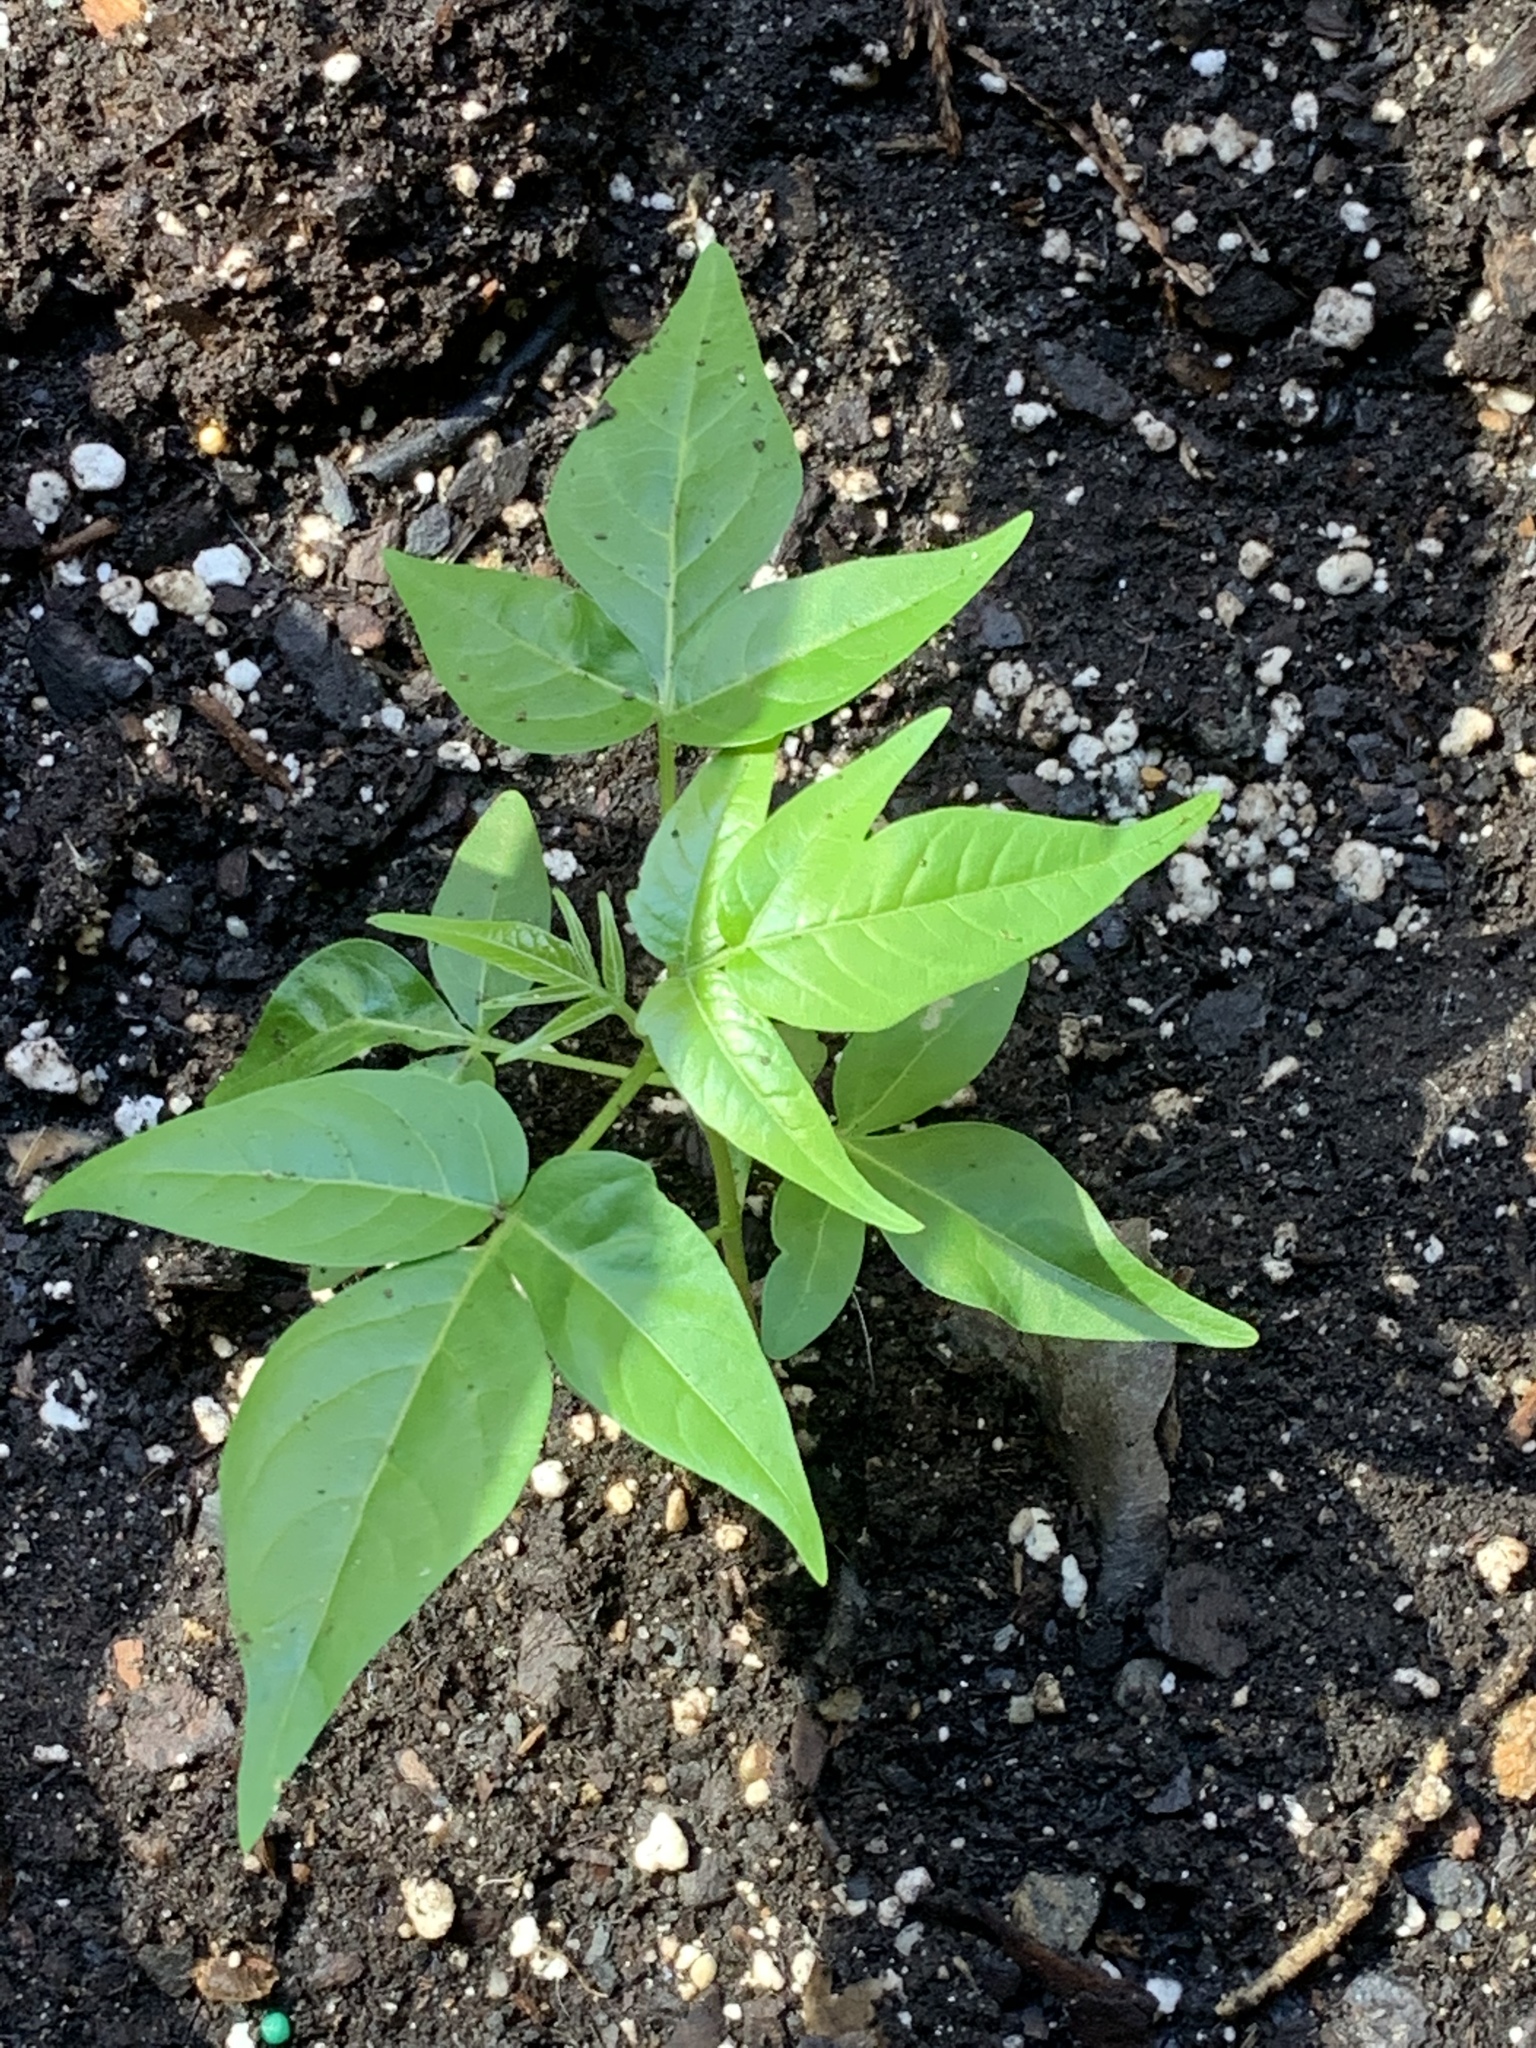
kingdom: Plantae
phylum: Tracheophyta
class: Magnoliopsida
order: Sapindales
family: Simaroubaceae
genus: Ailanthus
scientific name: Ailanthus altissima
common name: Tree-of-heaven
